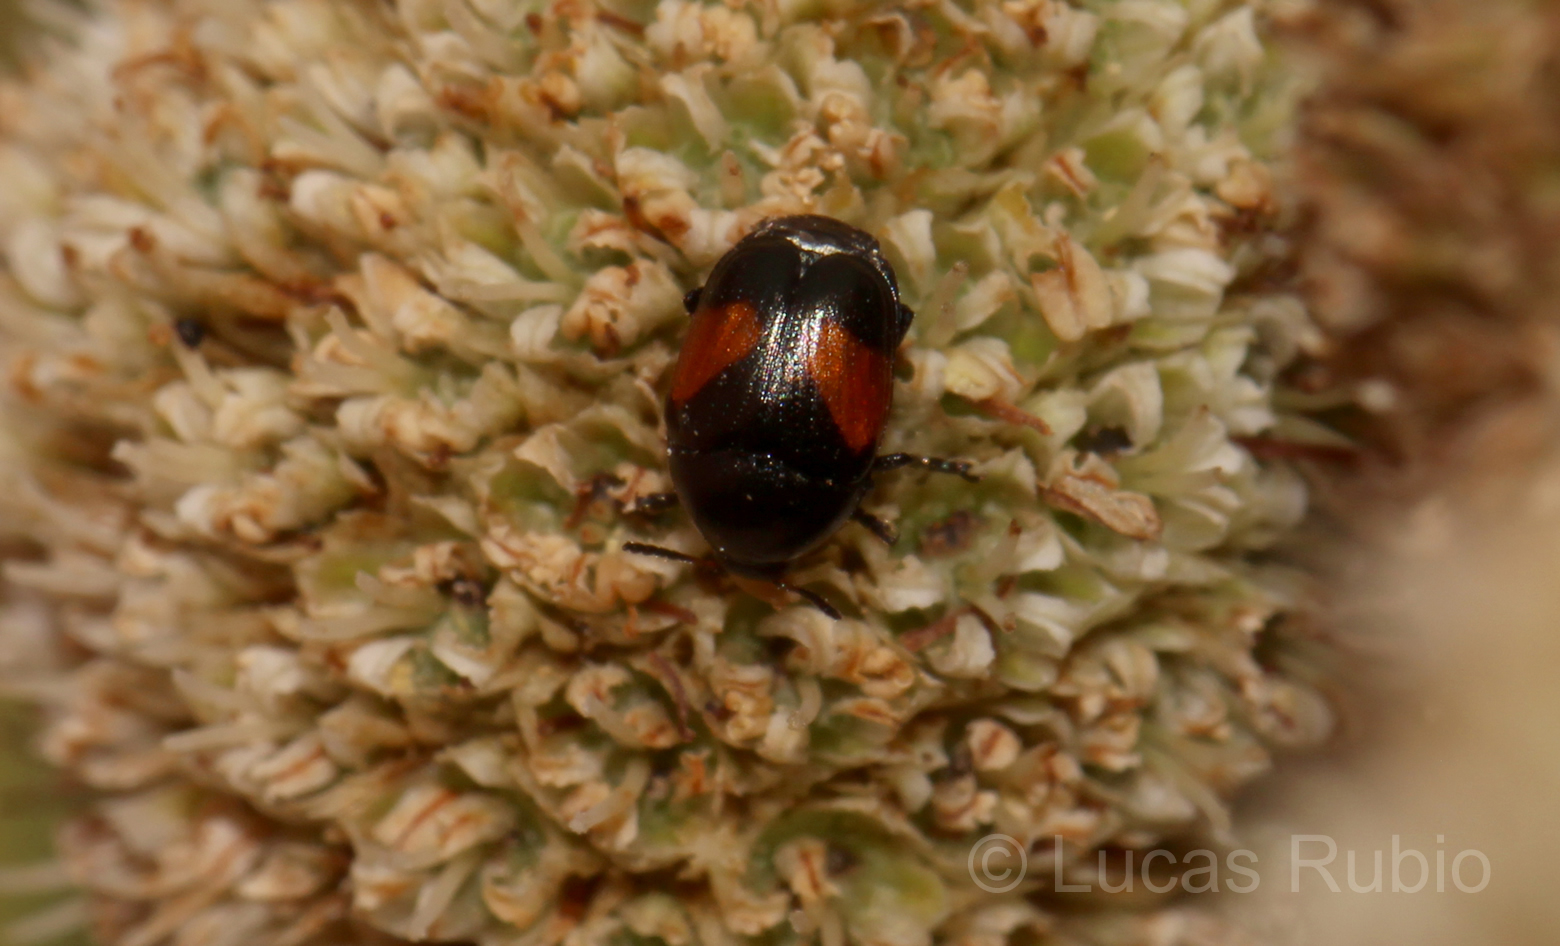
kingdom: Animalia
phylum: Arthropoda
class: Insecta
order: Coleoptera
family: Chrysomelidae
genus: Lexiphanes
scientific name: Lexiphanes
